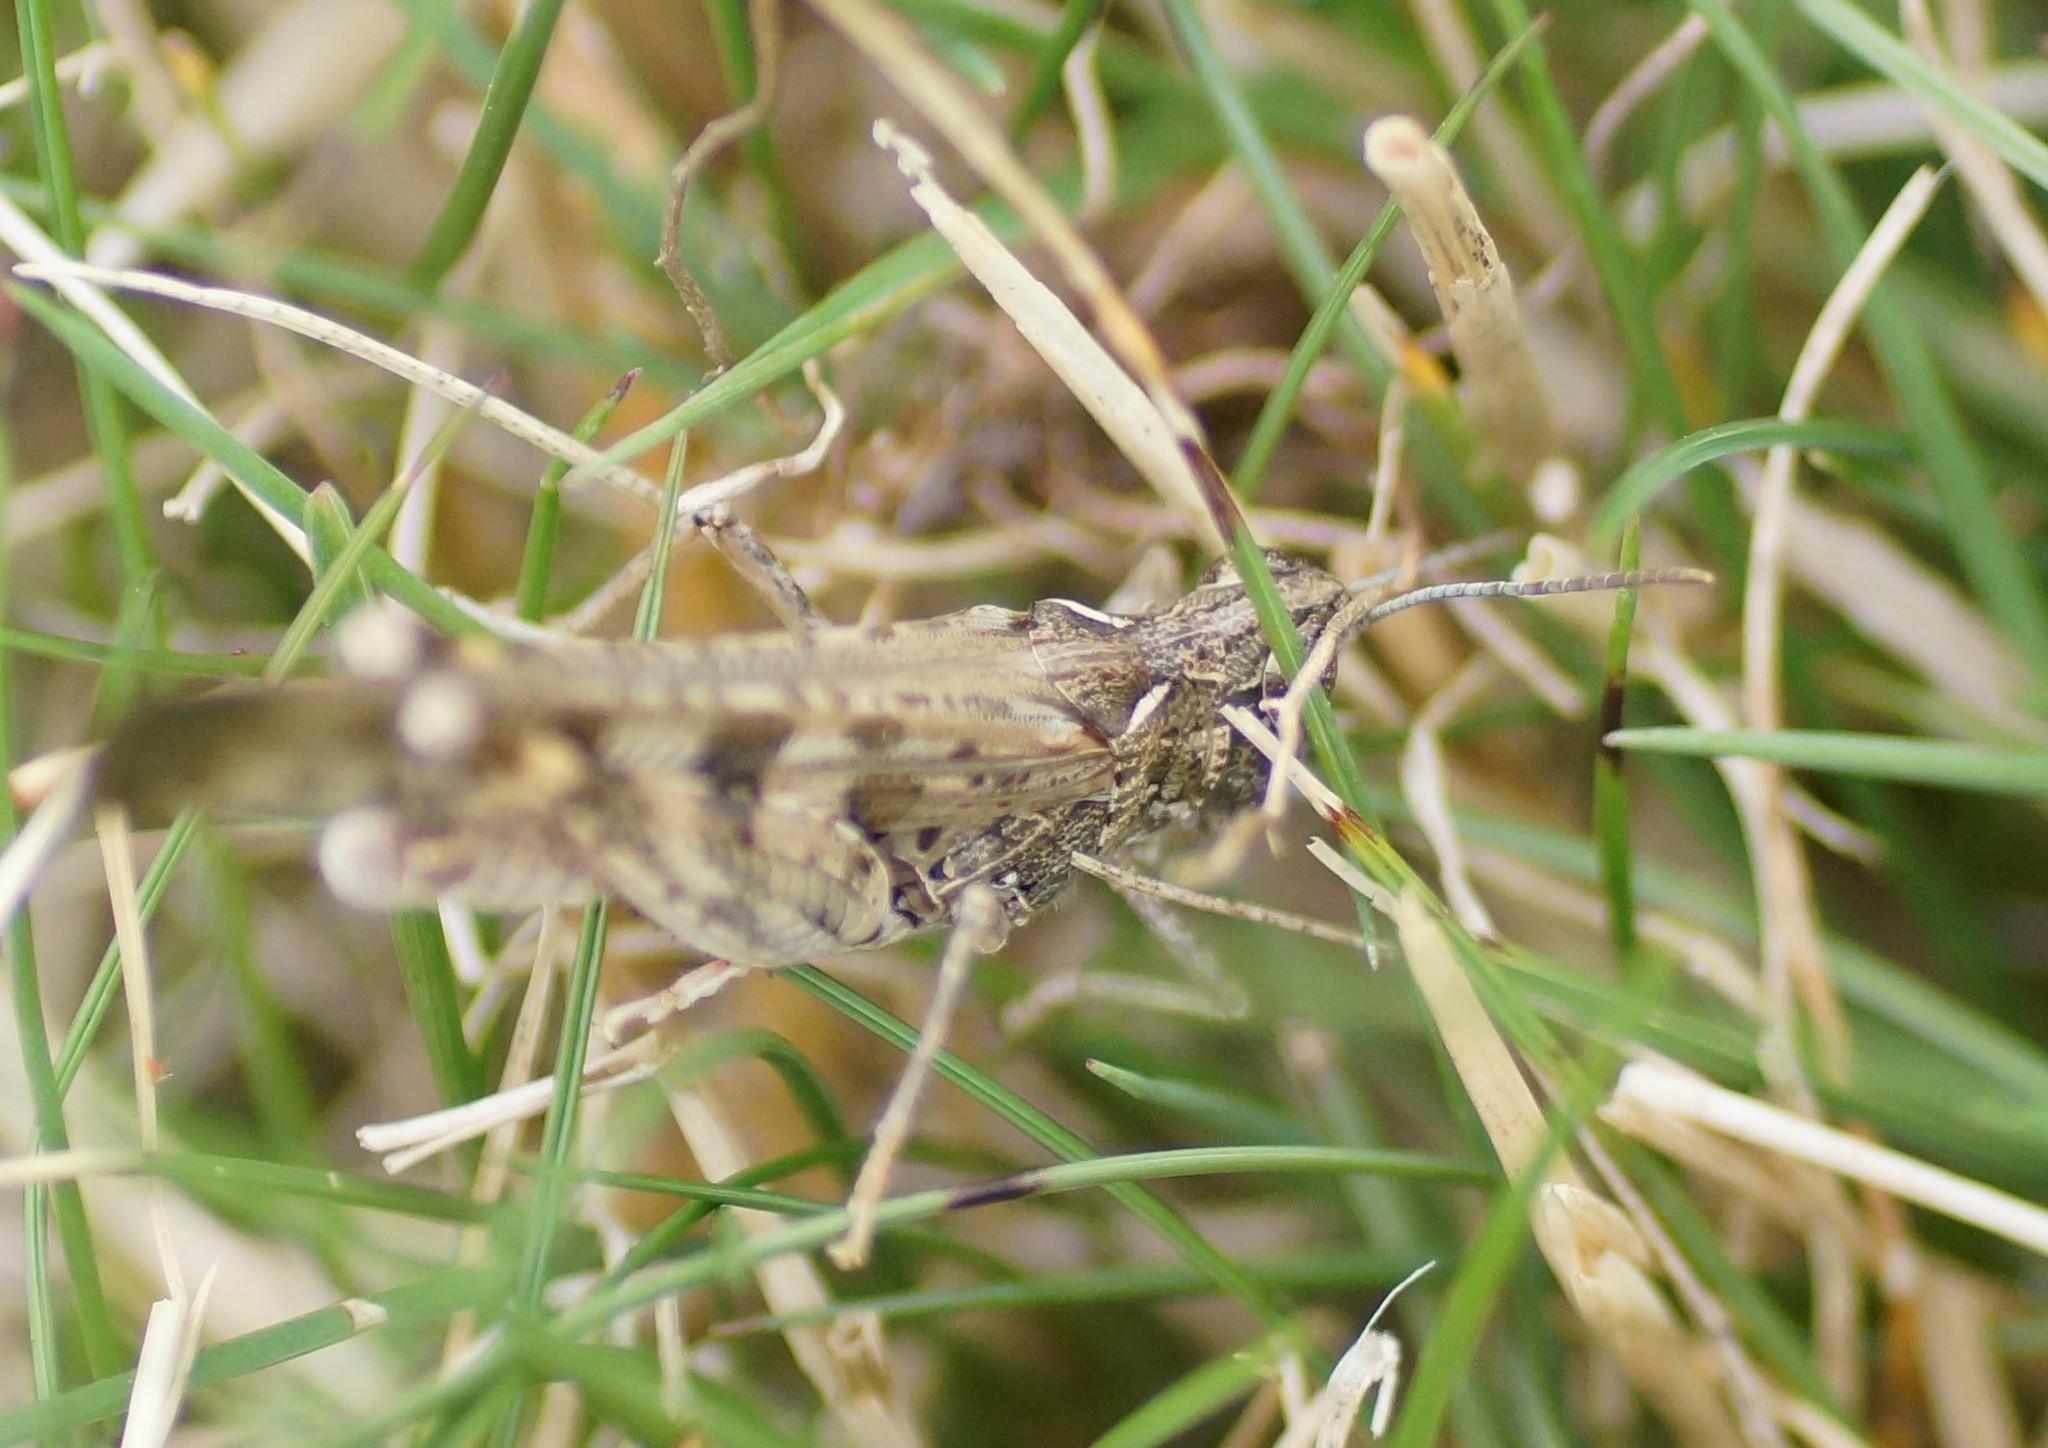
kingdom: Animalia
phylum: Arthropoda
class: Insecta
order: Orthoptera
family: Acrididae
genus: Chortoicetes
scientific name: Chortoicetes terminifera
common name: Australian plague locust
